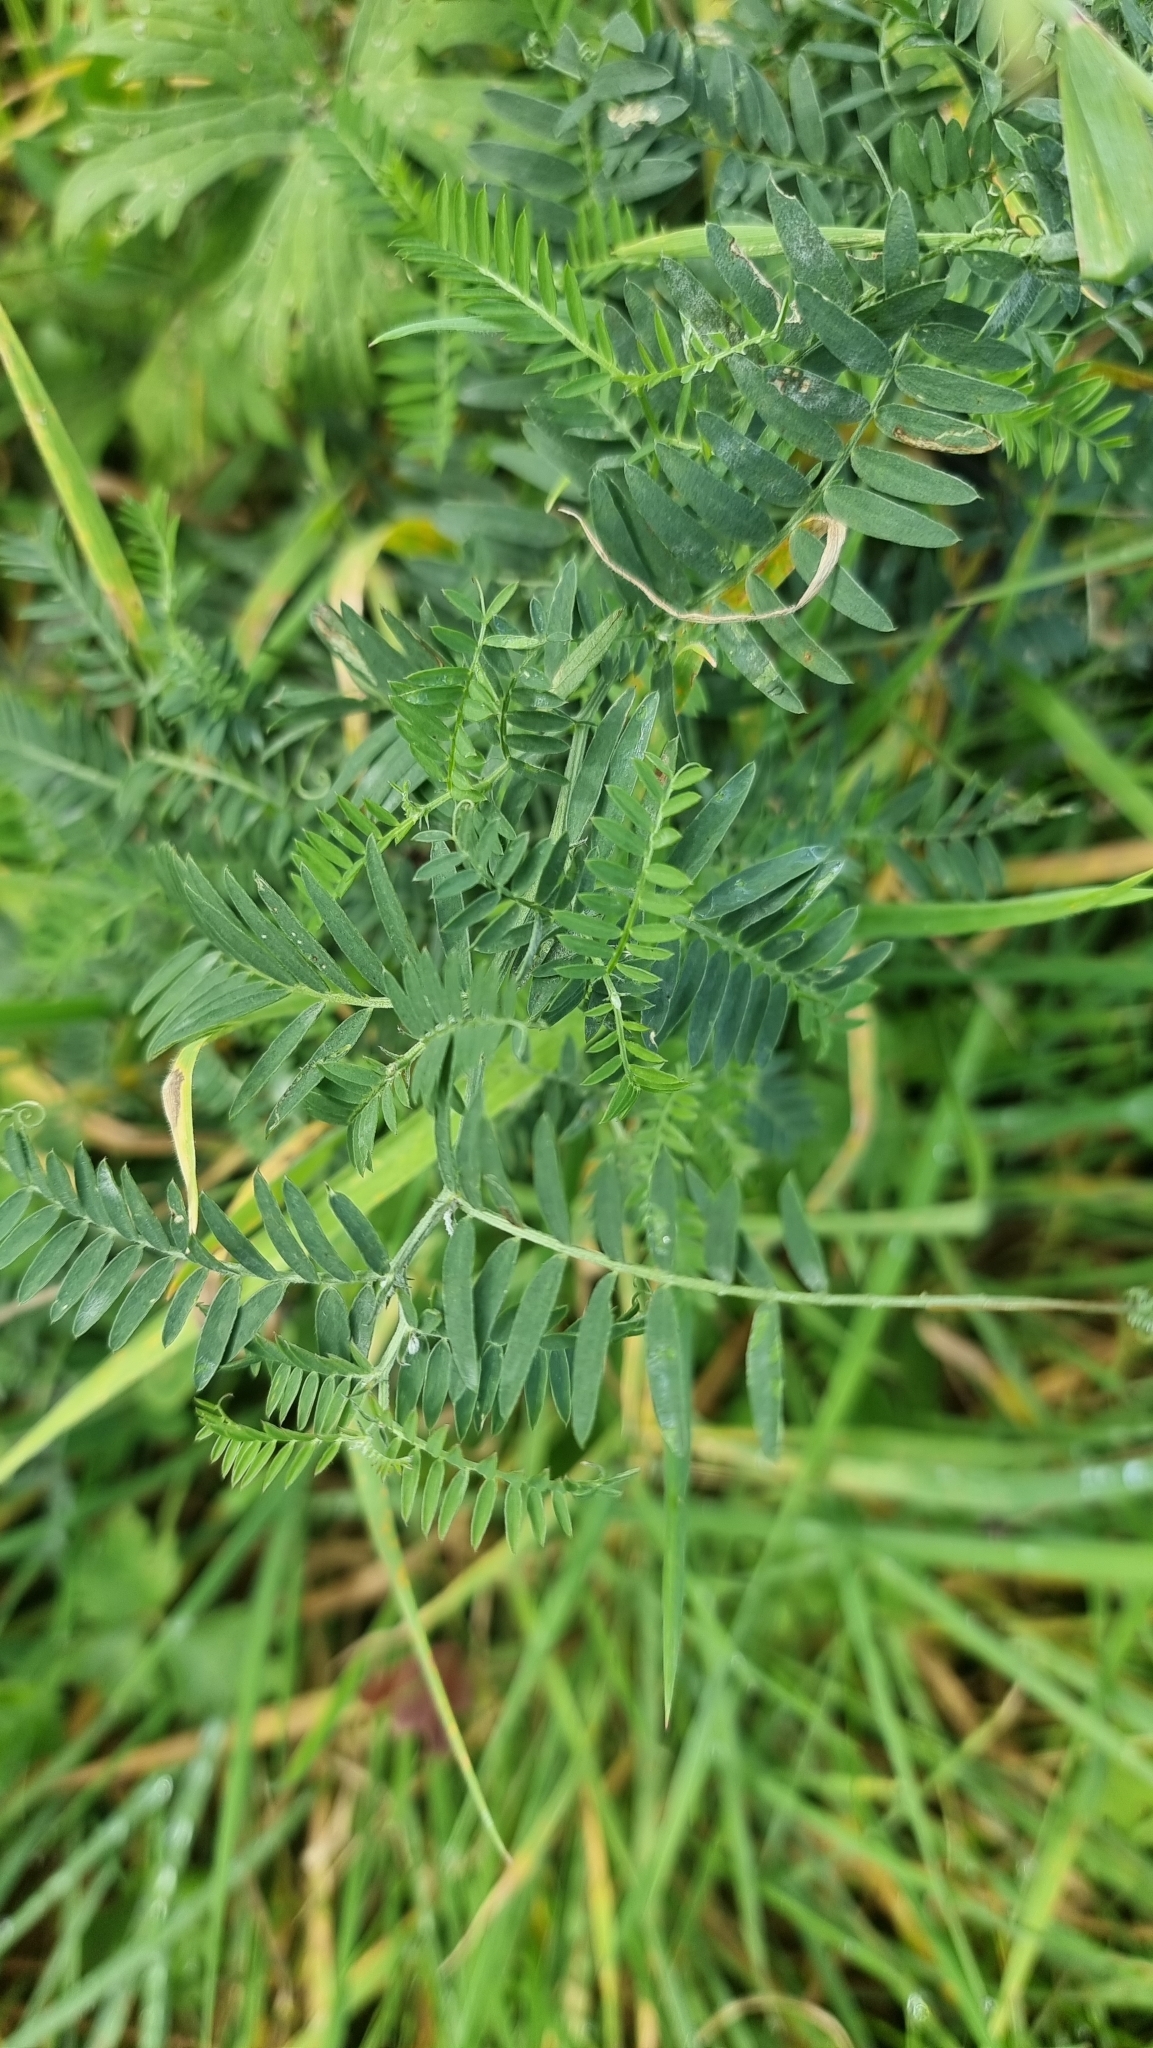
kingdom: Plantae
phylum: Tracheophyta
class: Magnoliopsida
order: Fabales
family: Fabaceae
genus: Vicia
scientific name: Vicia cracca
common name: Bird vetch
